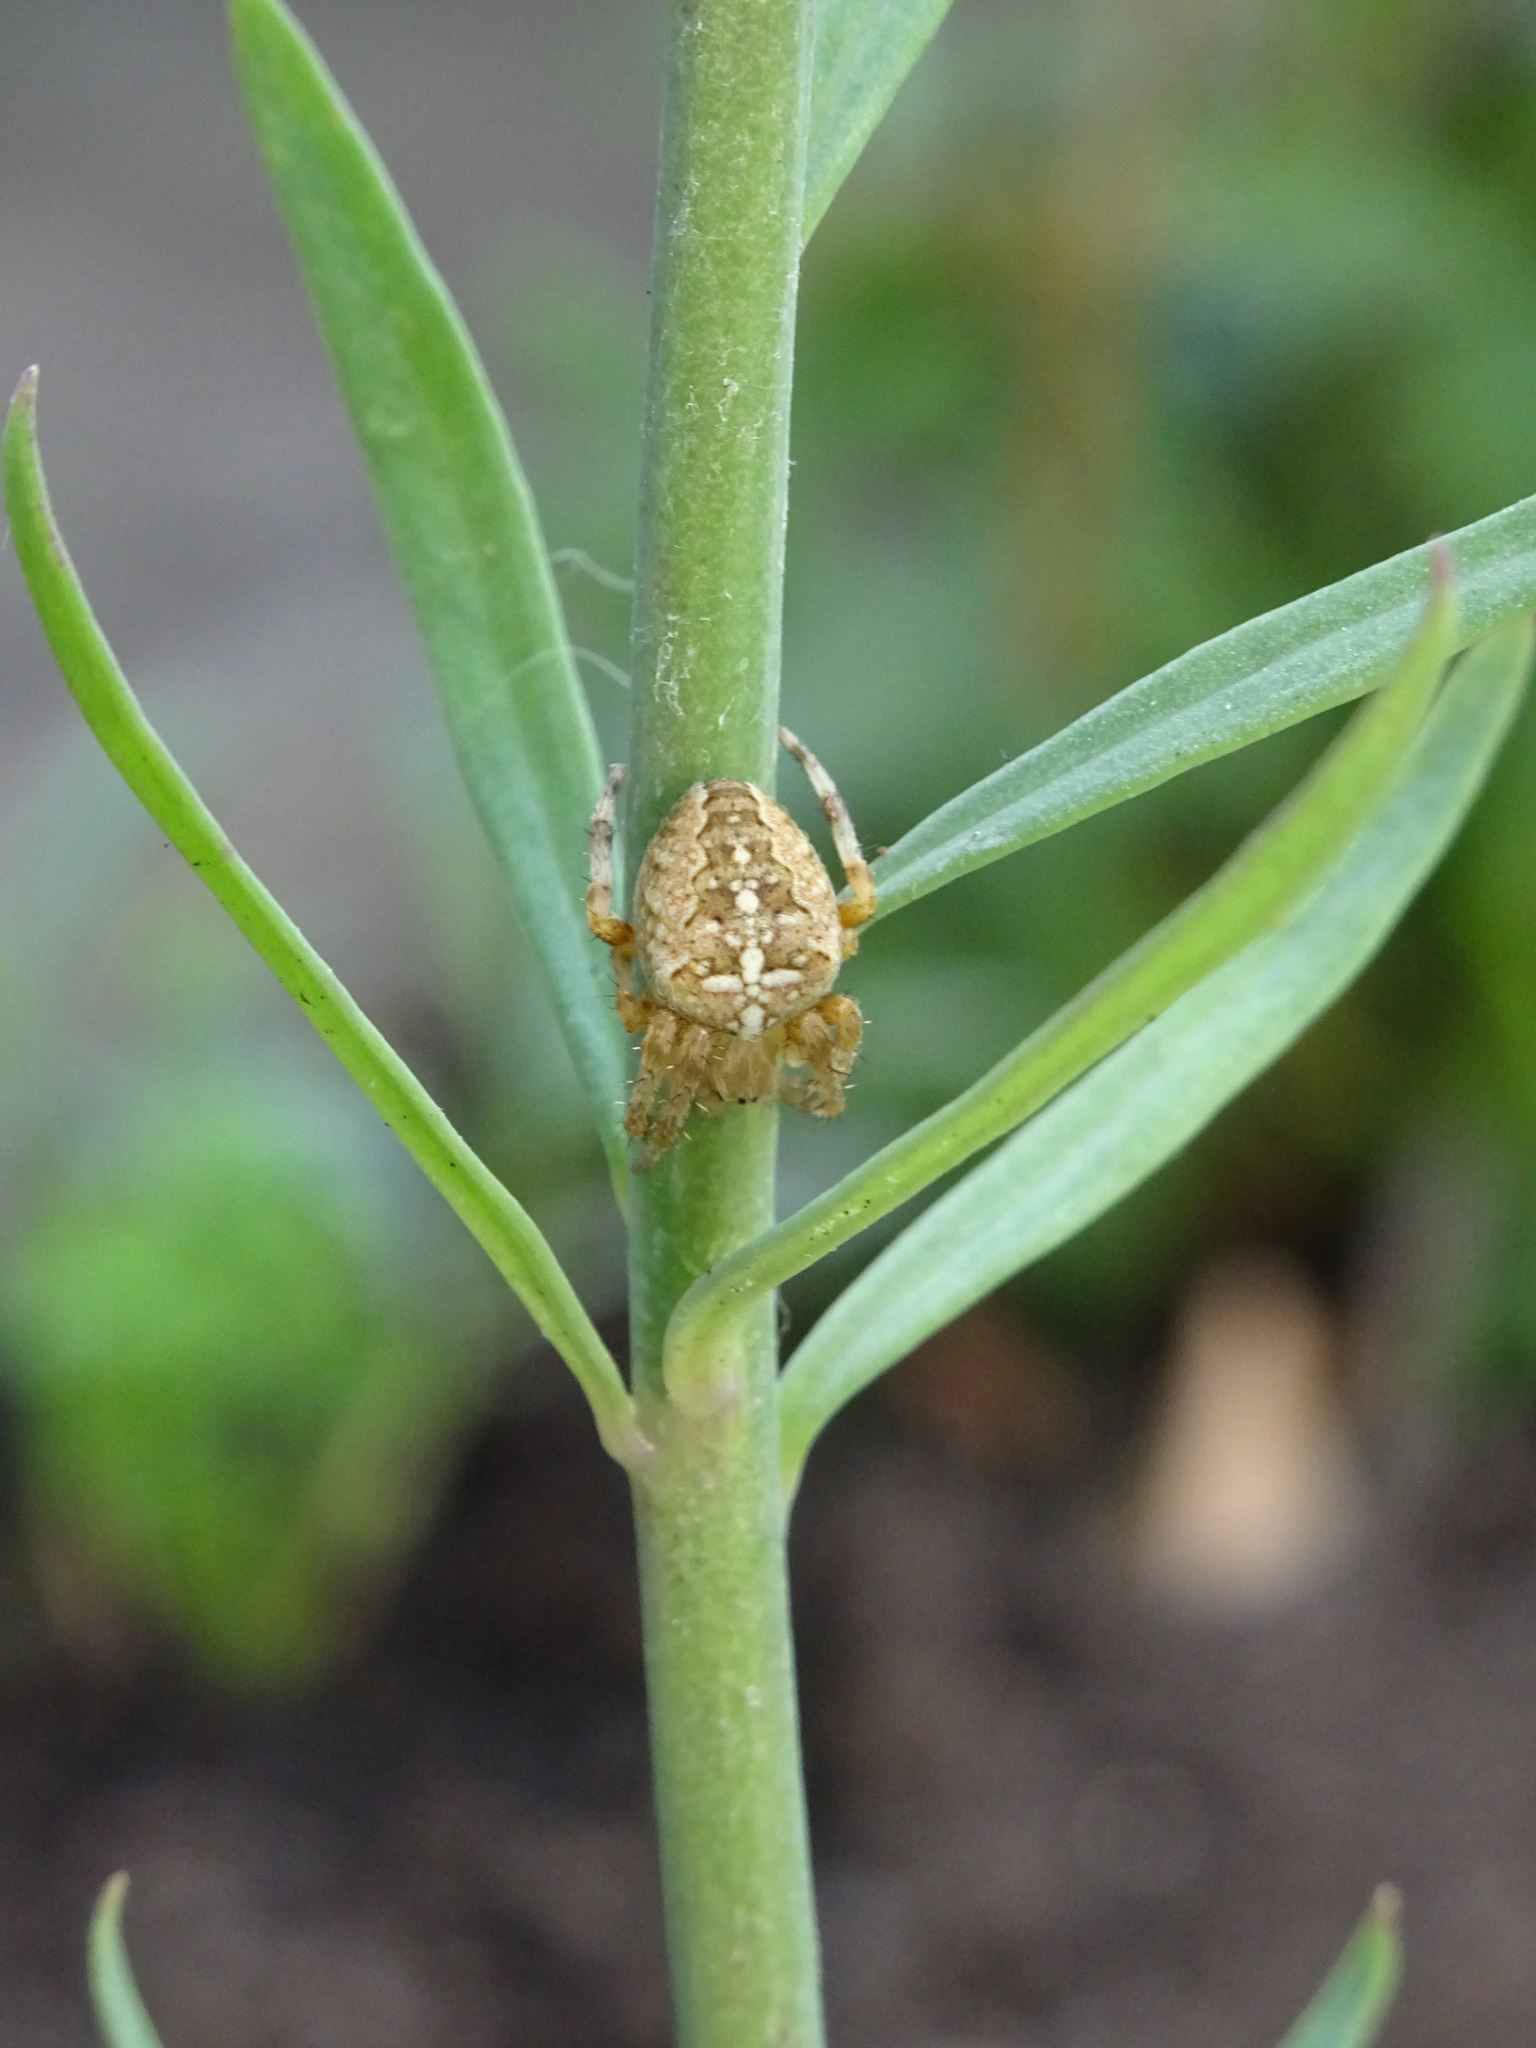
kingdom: Animalia
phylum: Arthropoda
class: Arachnida
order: Araneae
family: Araneidae
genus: Araneus
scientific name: Araneus diadematus
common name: Cross orbweaver
